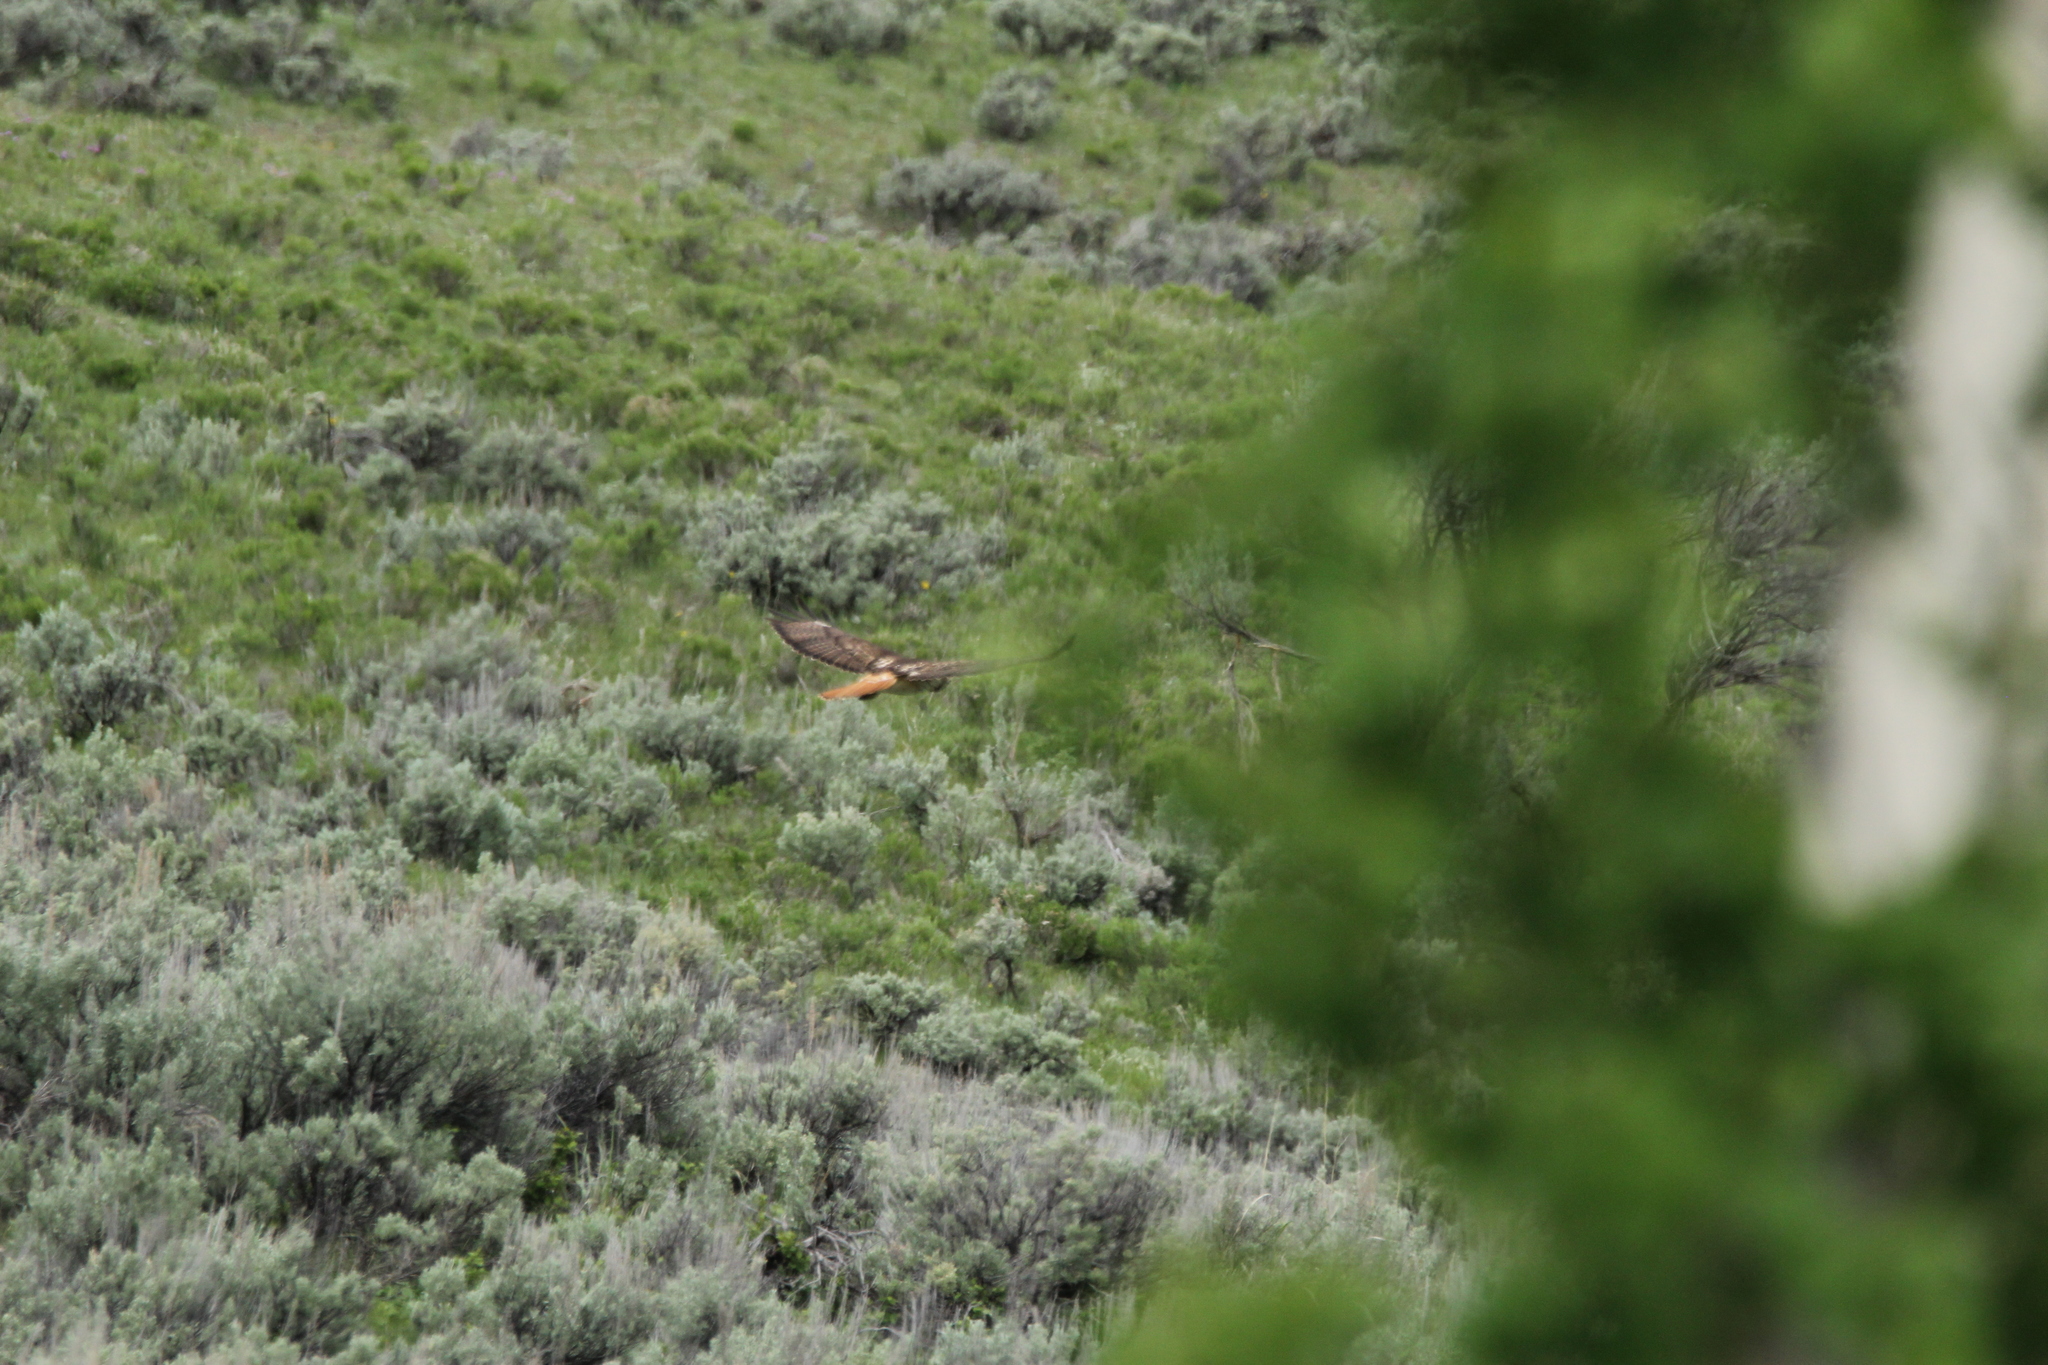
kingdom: Animalia
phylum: Chordata
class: Aves
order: Accipitriformes
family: Accipitridae
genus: Buteo
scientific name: Buteo jamaicensis
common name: Red-tailed hawk
